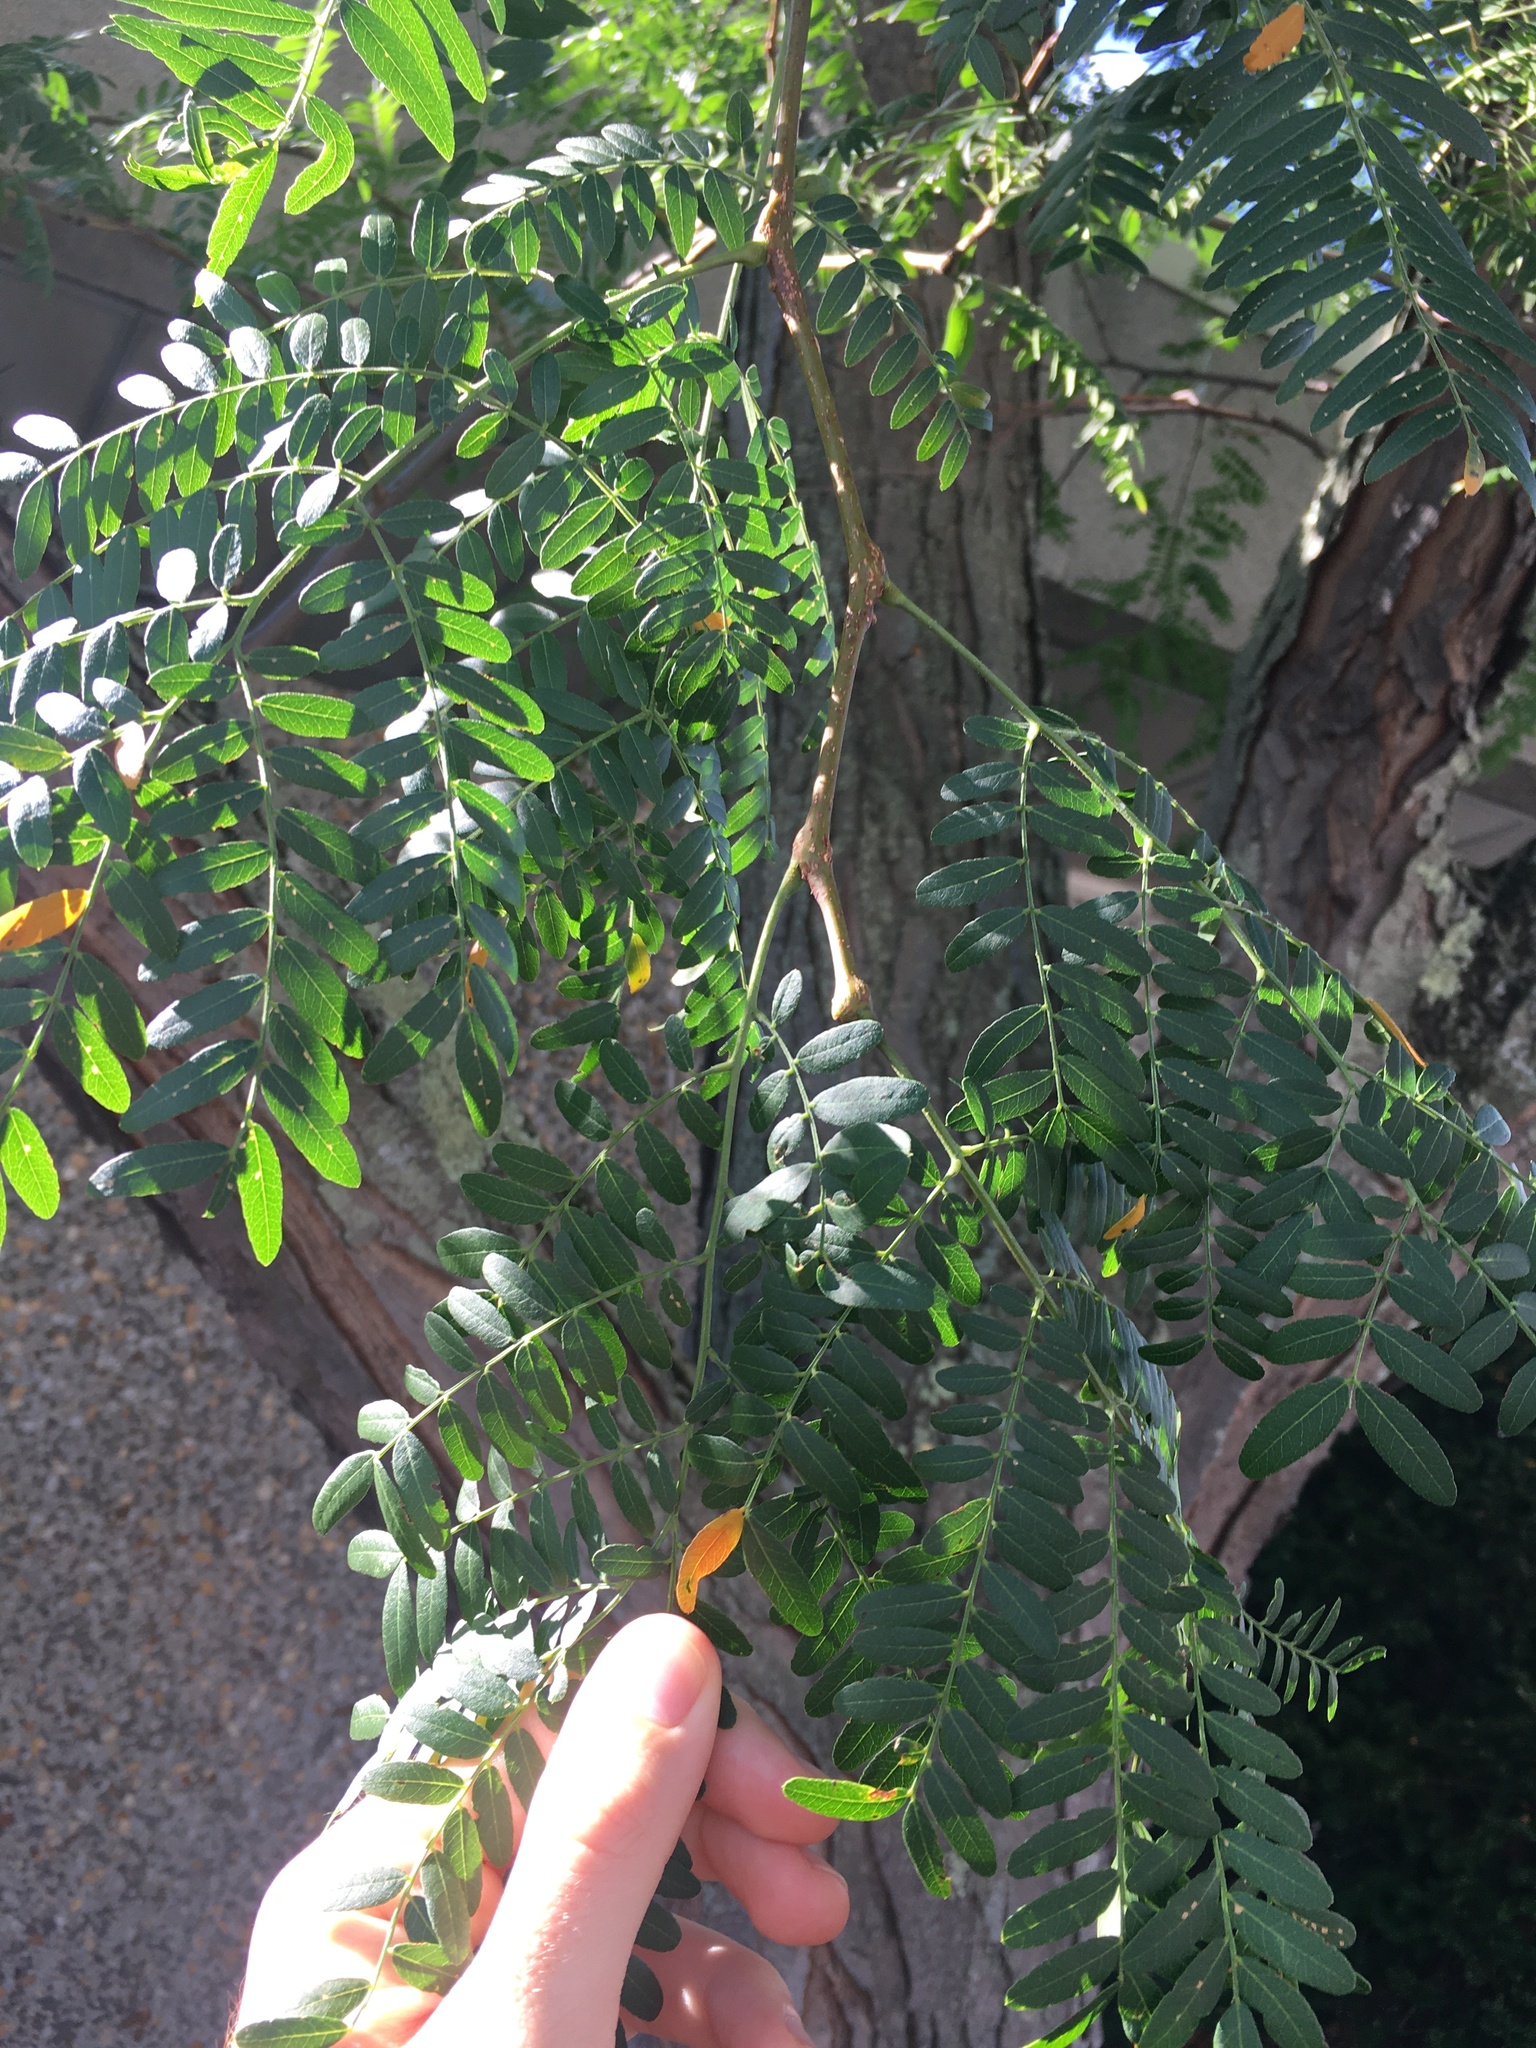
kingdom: Plantae
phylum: Tracheophyta
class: Magnoliopsida
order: Fabales
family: Fabaceae
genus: Gleditsia
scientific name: Gleditsia triacanthos
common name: Common honeylocust
